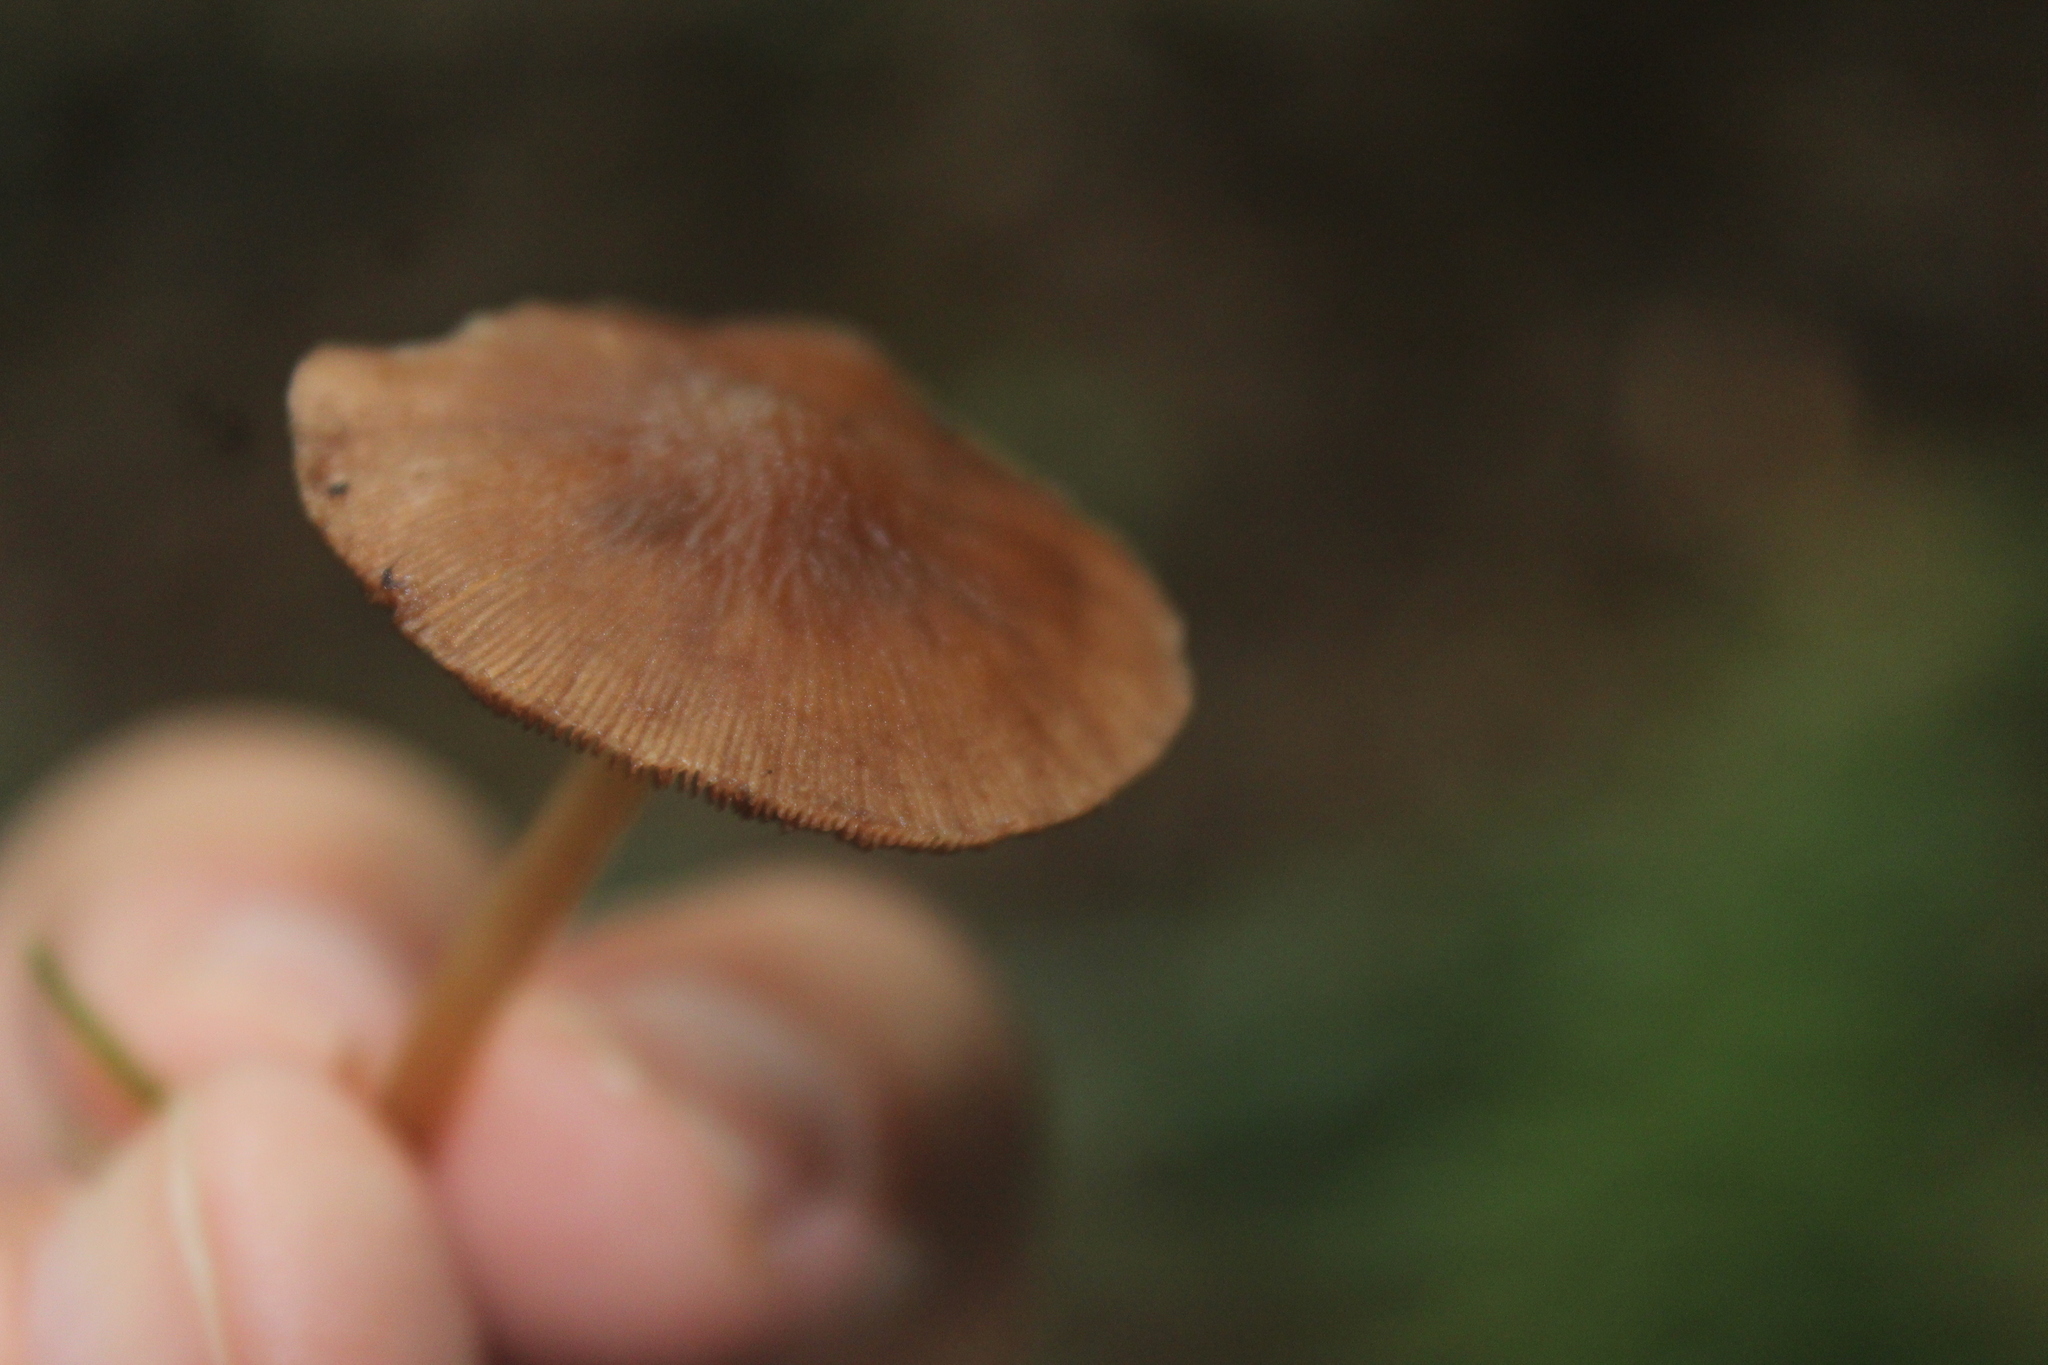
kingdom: Fungi
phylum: Basidiomycota
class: Agaricomycetes
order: Agaricales
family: Psathyrellaceae
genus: Psathyrella
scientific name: Psathyrella piluliformis
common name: Common stump brittlestem
